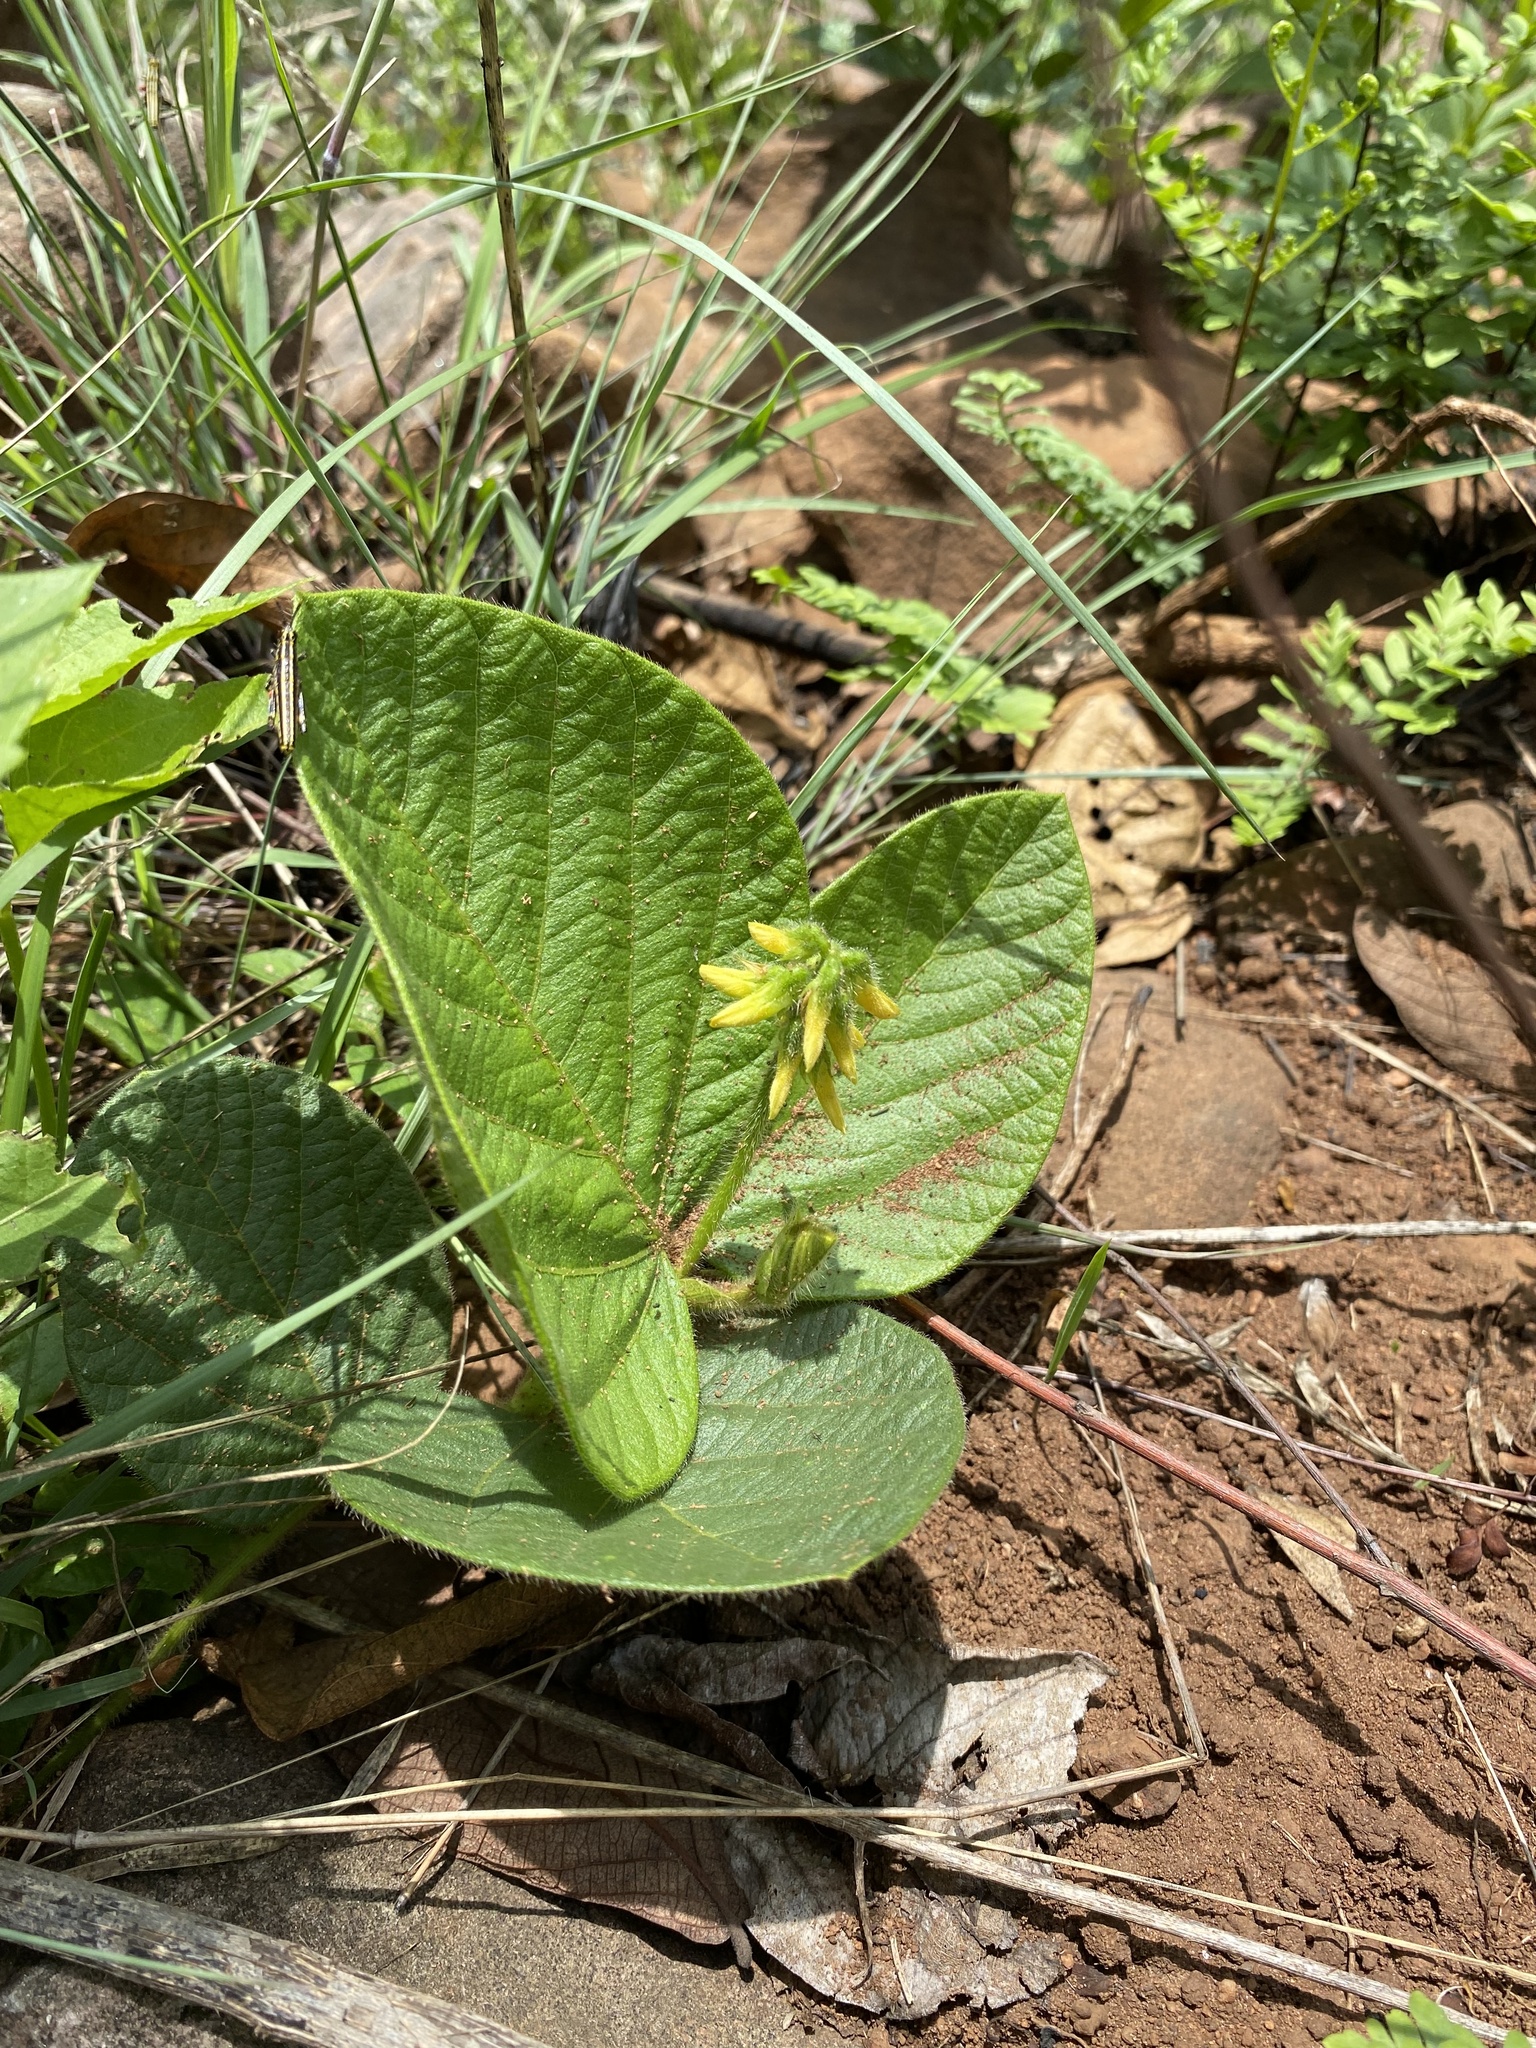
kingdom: Plantae
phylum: Tracheophyta
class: Magnoliopsida
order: Fabales
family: Fabaceae
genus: Eriosema
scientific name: Eriosema cordatum
